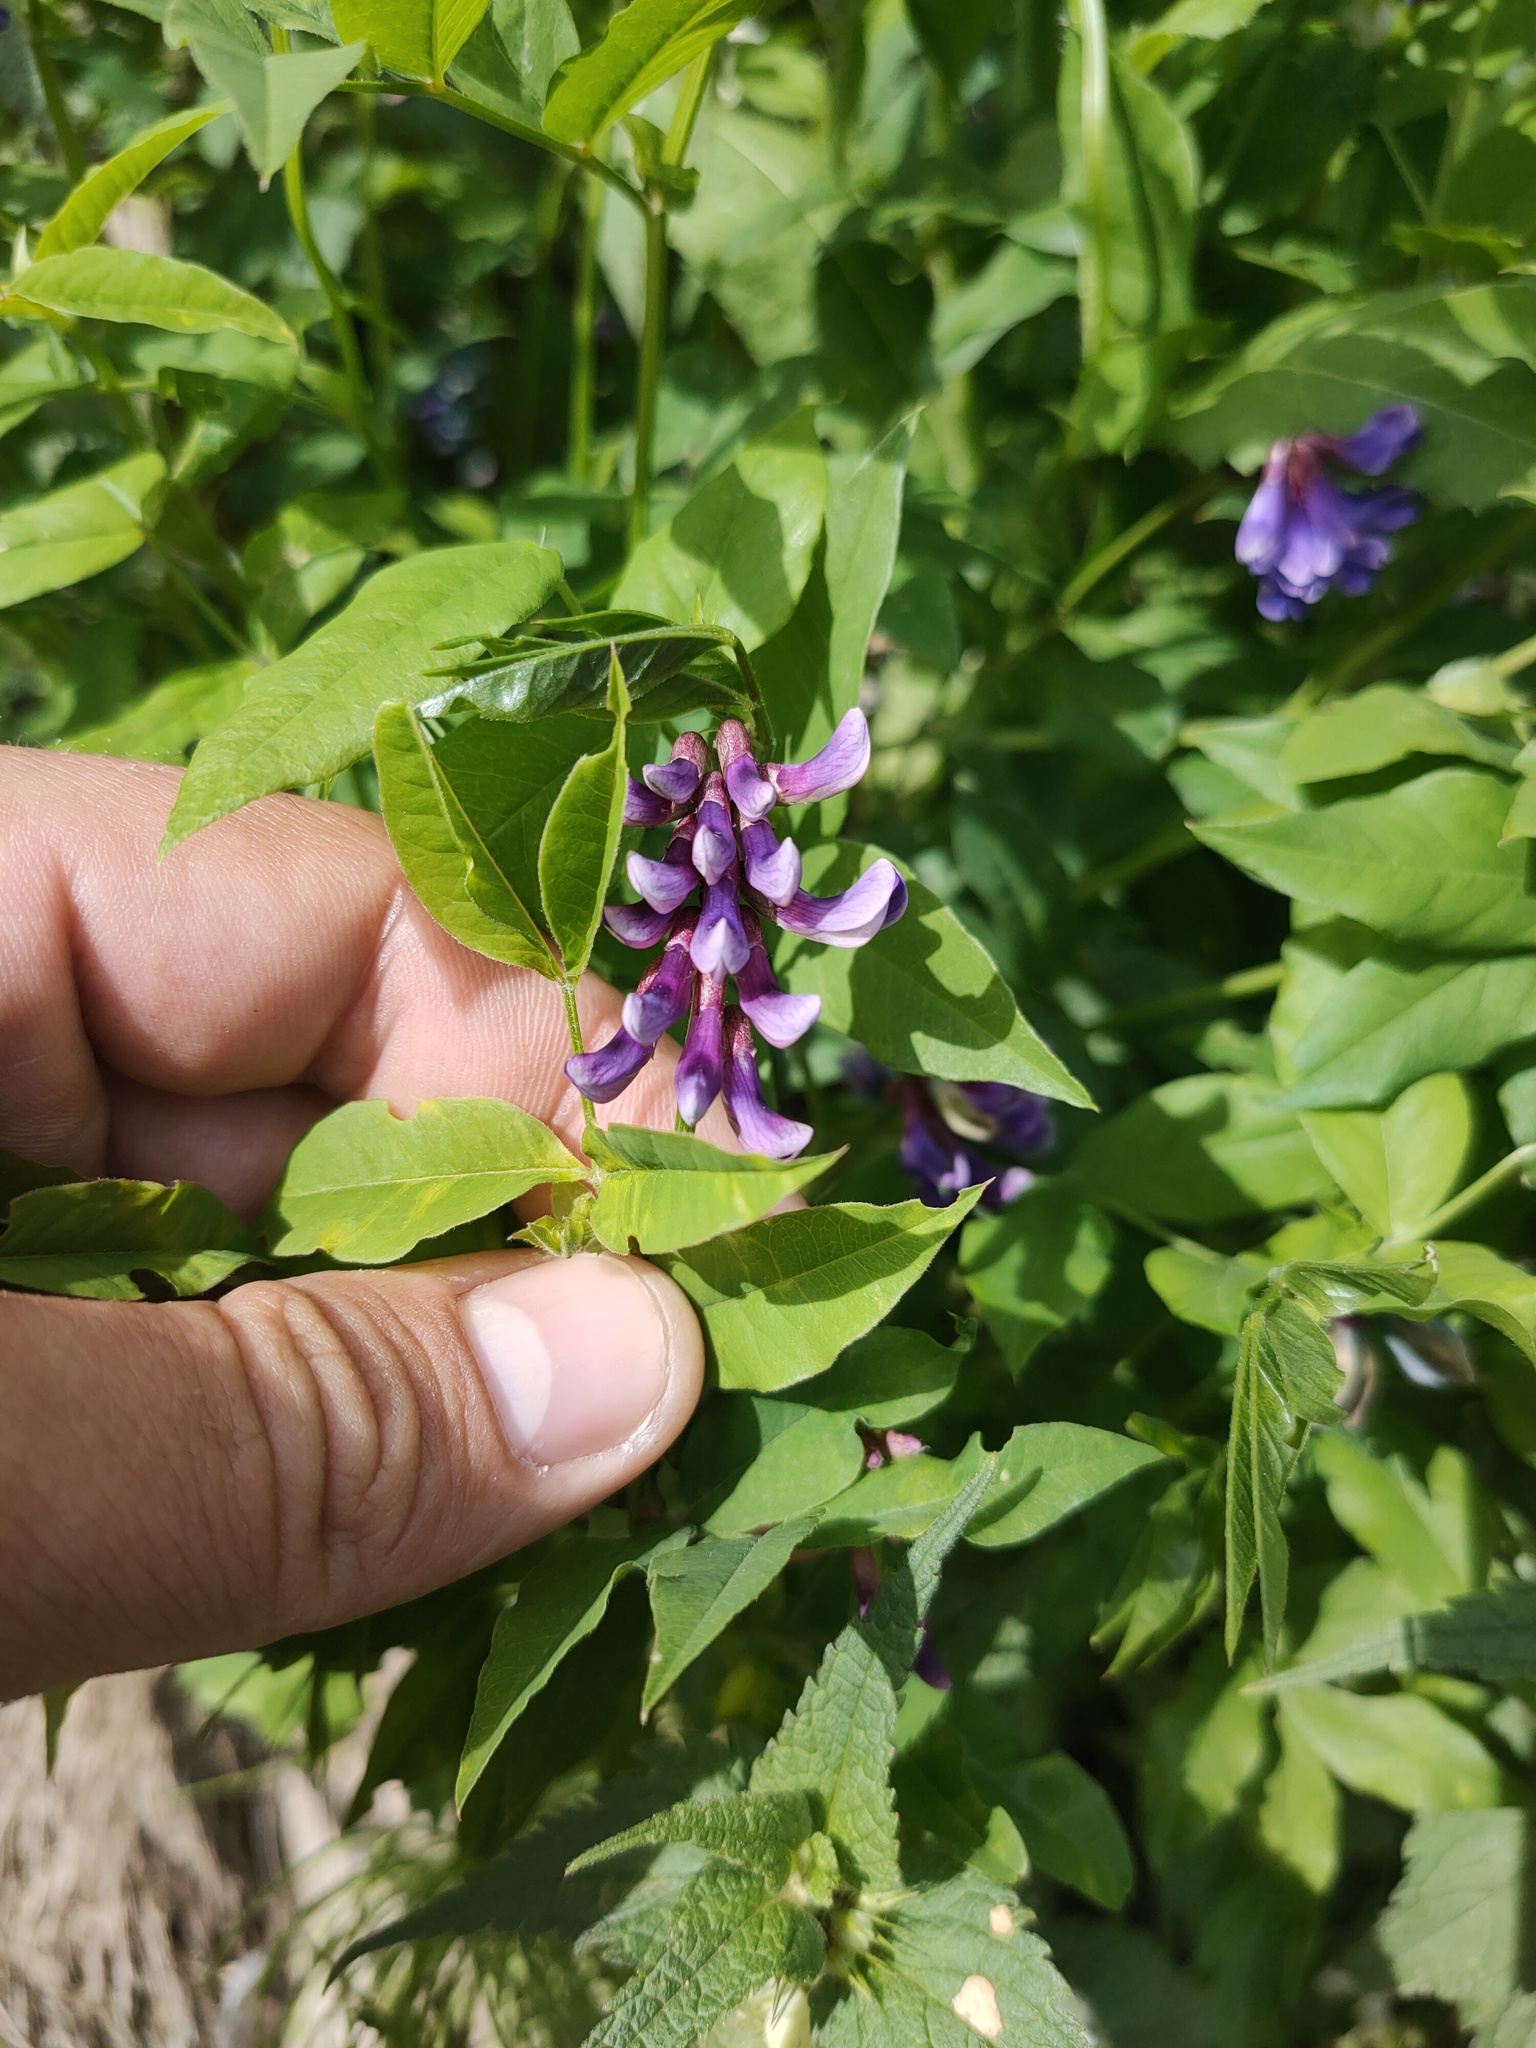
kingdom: Plantae
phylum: Tracheophyta
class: Magnoliopsida
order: Fabales
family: Fabaceae
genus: Vicia
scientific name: Vicia ramuliflora
